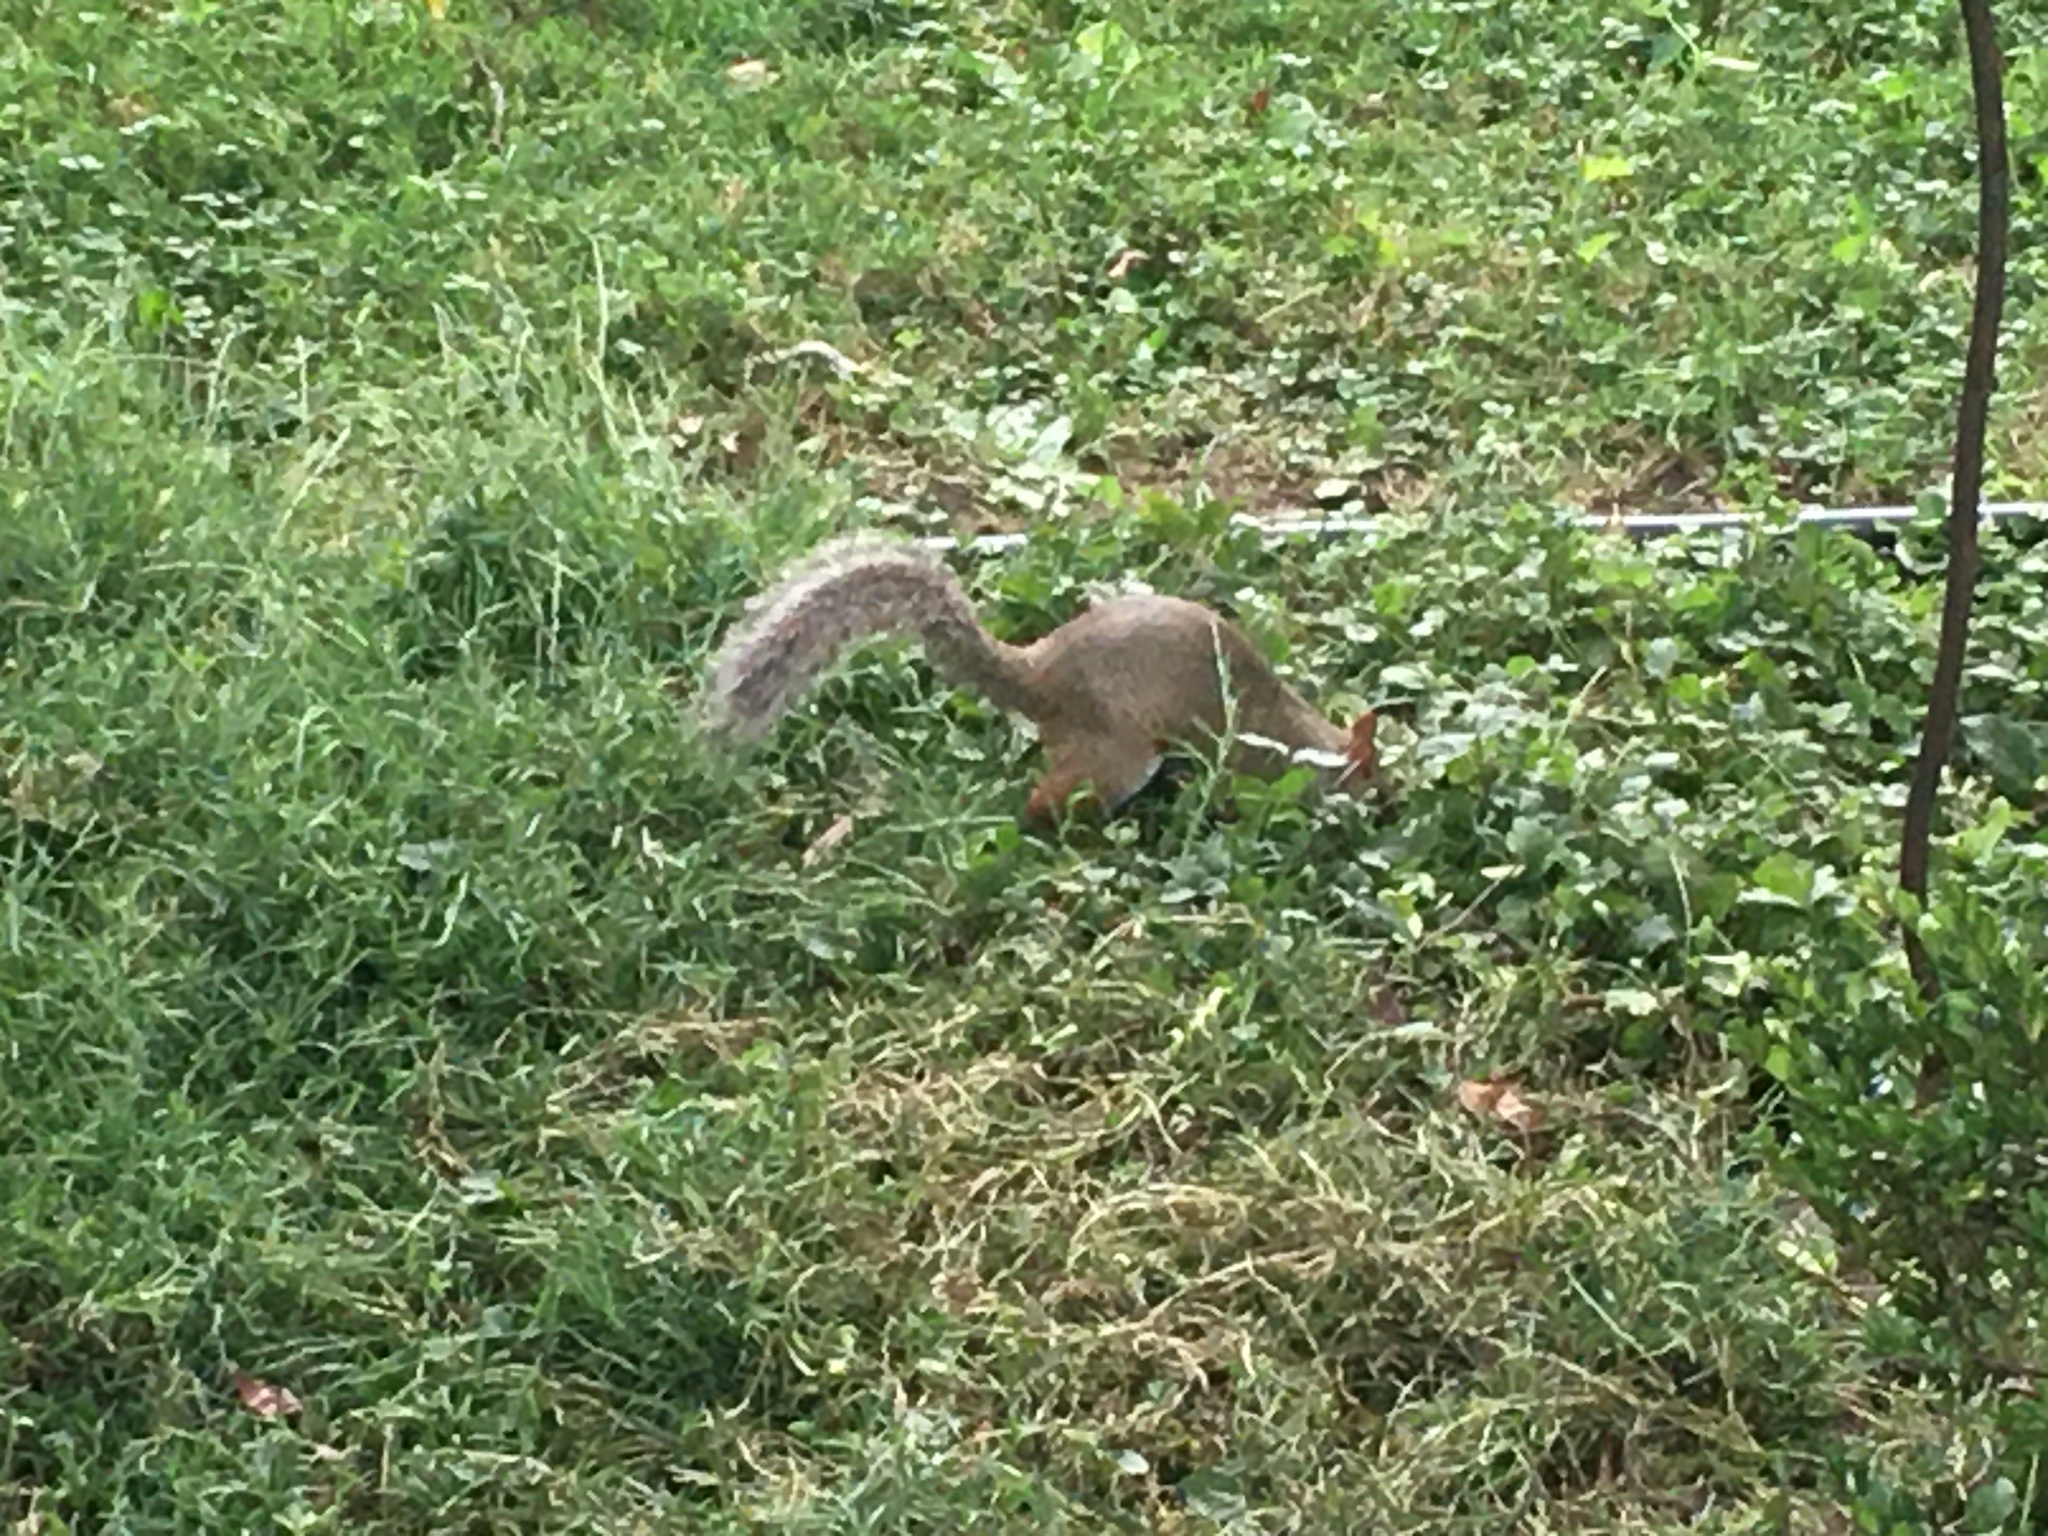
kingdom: Animalia
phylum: Chordata
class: Mammalia
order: Rodentia
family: Sciuridae
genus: Sciurus
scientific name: Sciurus carolinensis
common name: Eastern gray squirrel
